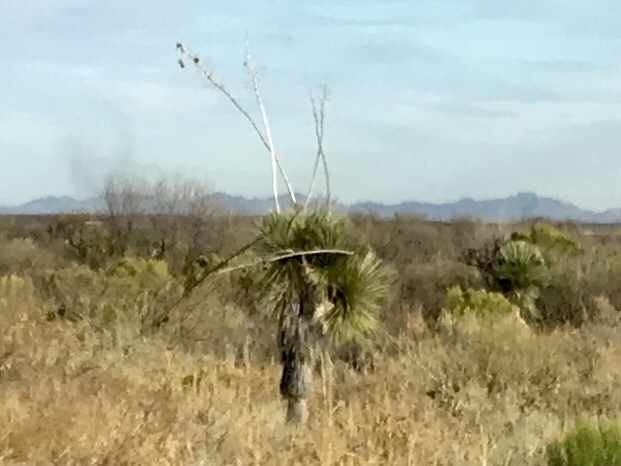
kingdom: Plantae
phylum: Tracheophyta
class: Liliopsida
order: Asparagales
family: Asparagaceae
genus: Yucca
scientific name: Yucca elata
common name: Palmella
